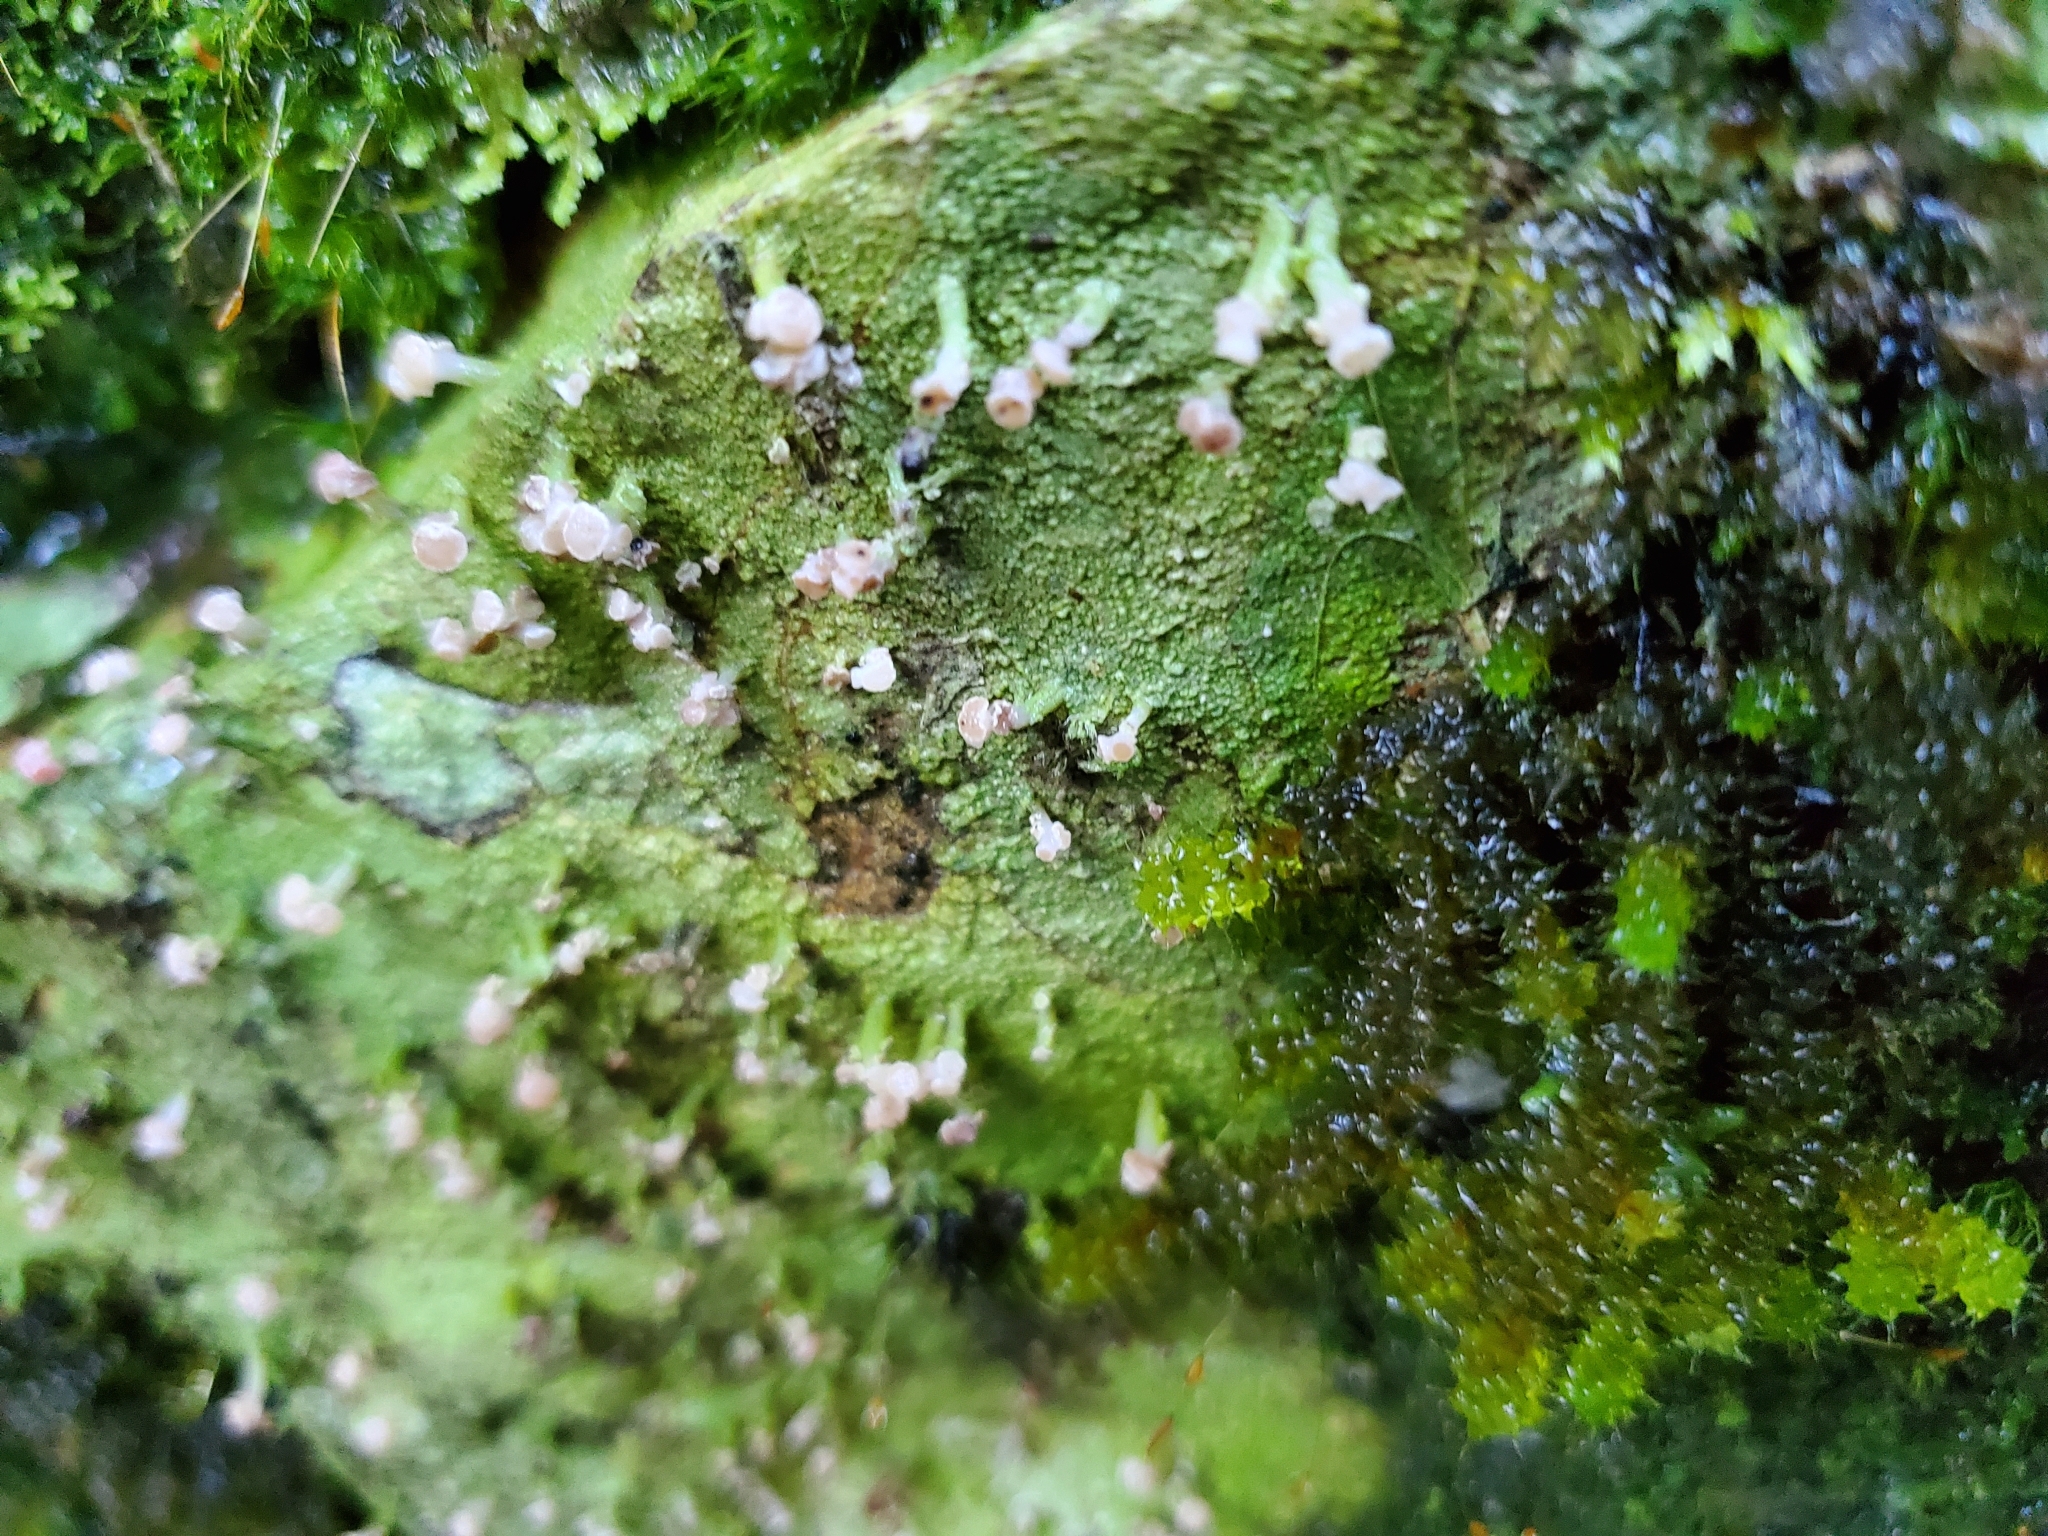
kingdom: Fungi
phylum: Ascomycota
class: Lecanoromycetes
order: Baeomycetales
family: Baeomycetaceae
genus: Baeomyces
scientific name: Baeomyces heteromorphus
